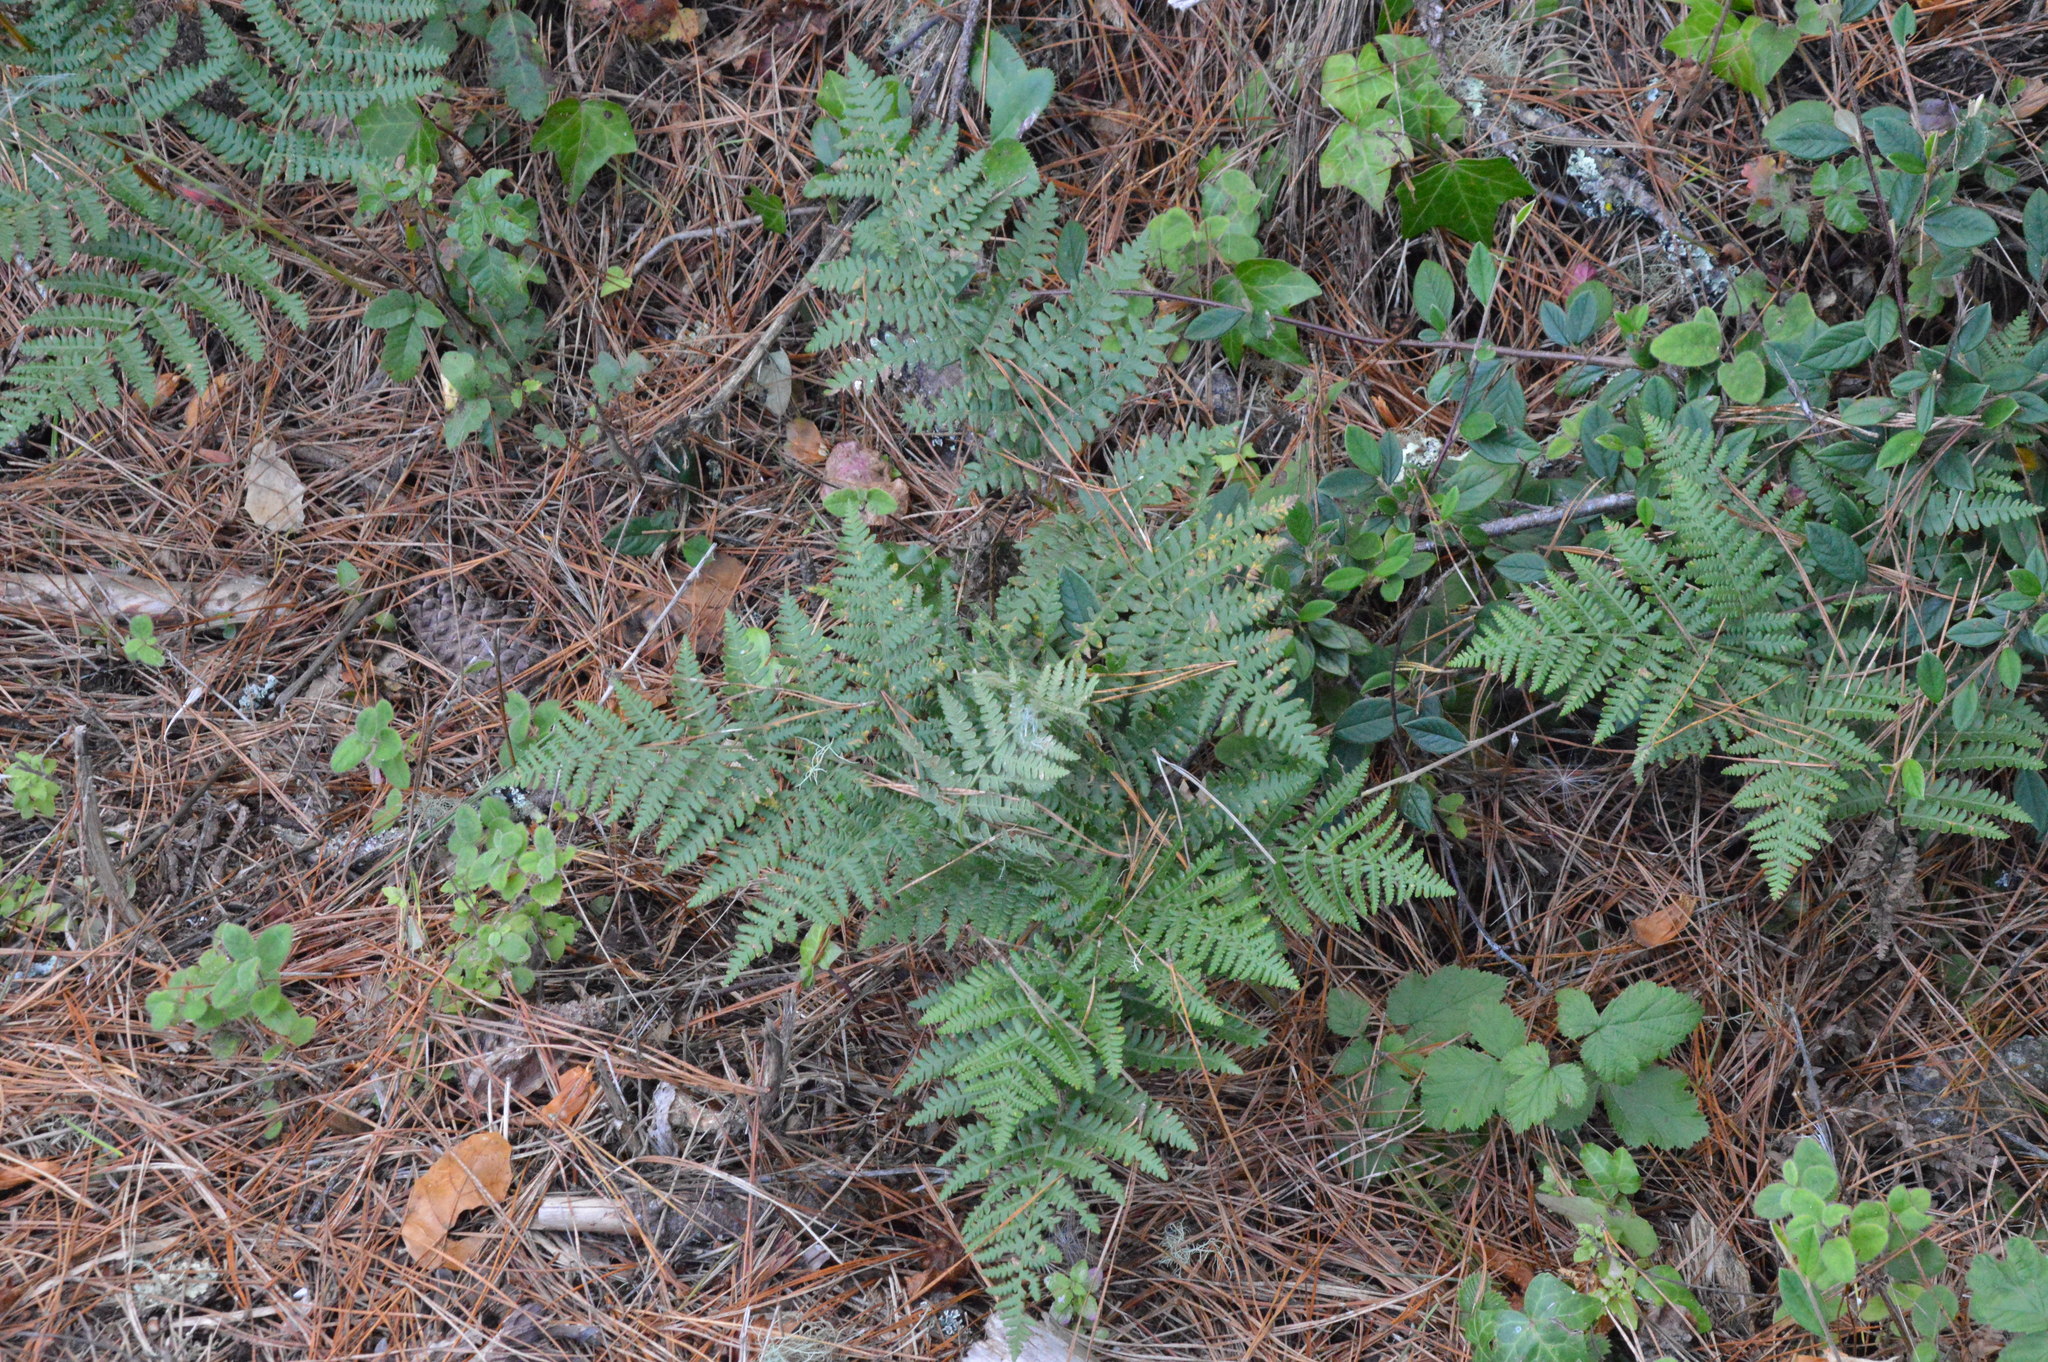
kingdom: Plantae
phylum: Tracheophyta
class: Polypodiopsida
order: Polypodiales
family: Dennstaedtiaceae
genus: Pteridium
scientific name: Pteridium aquilinum
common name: Bracken
